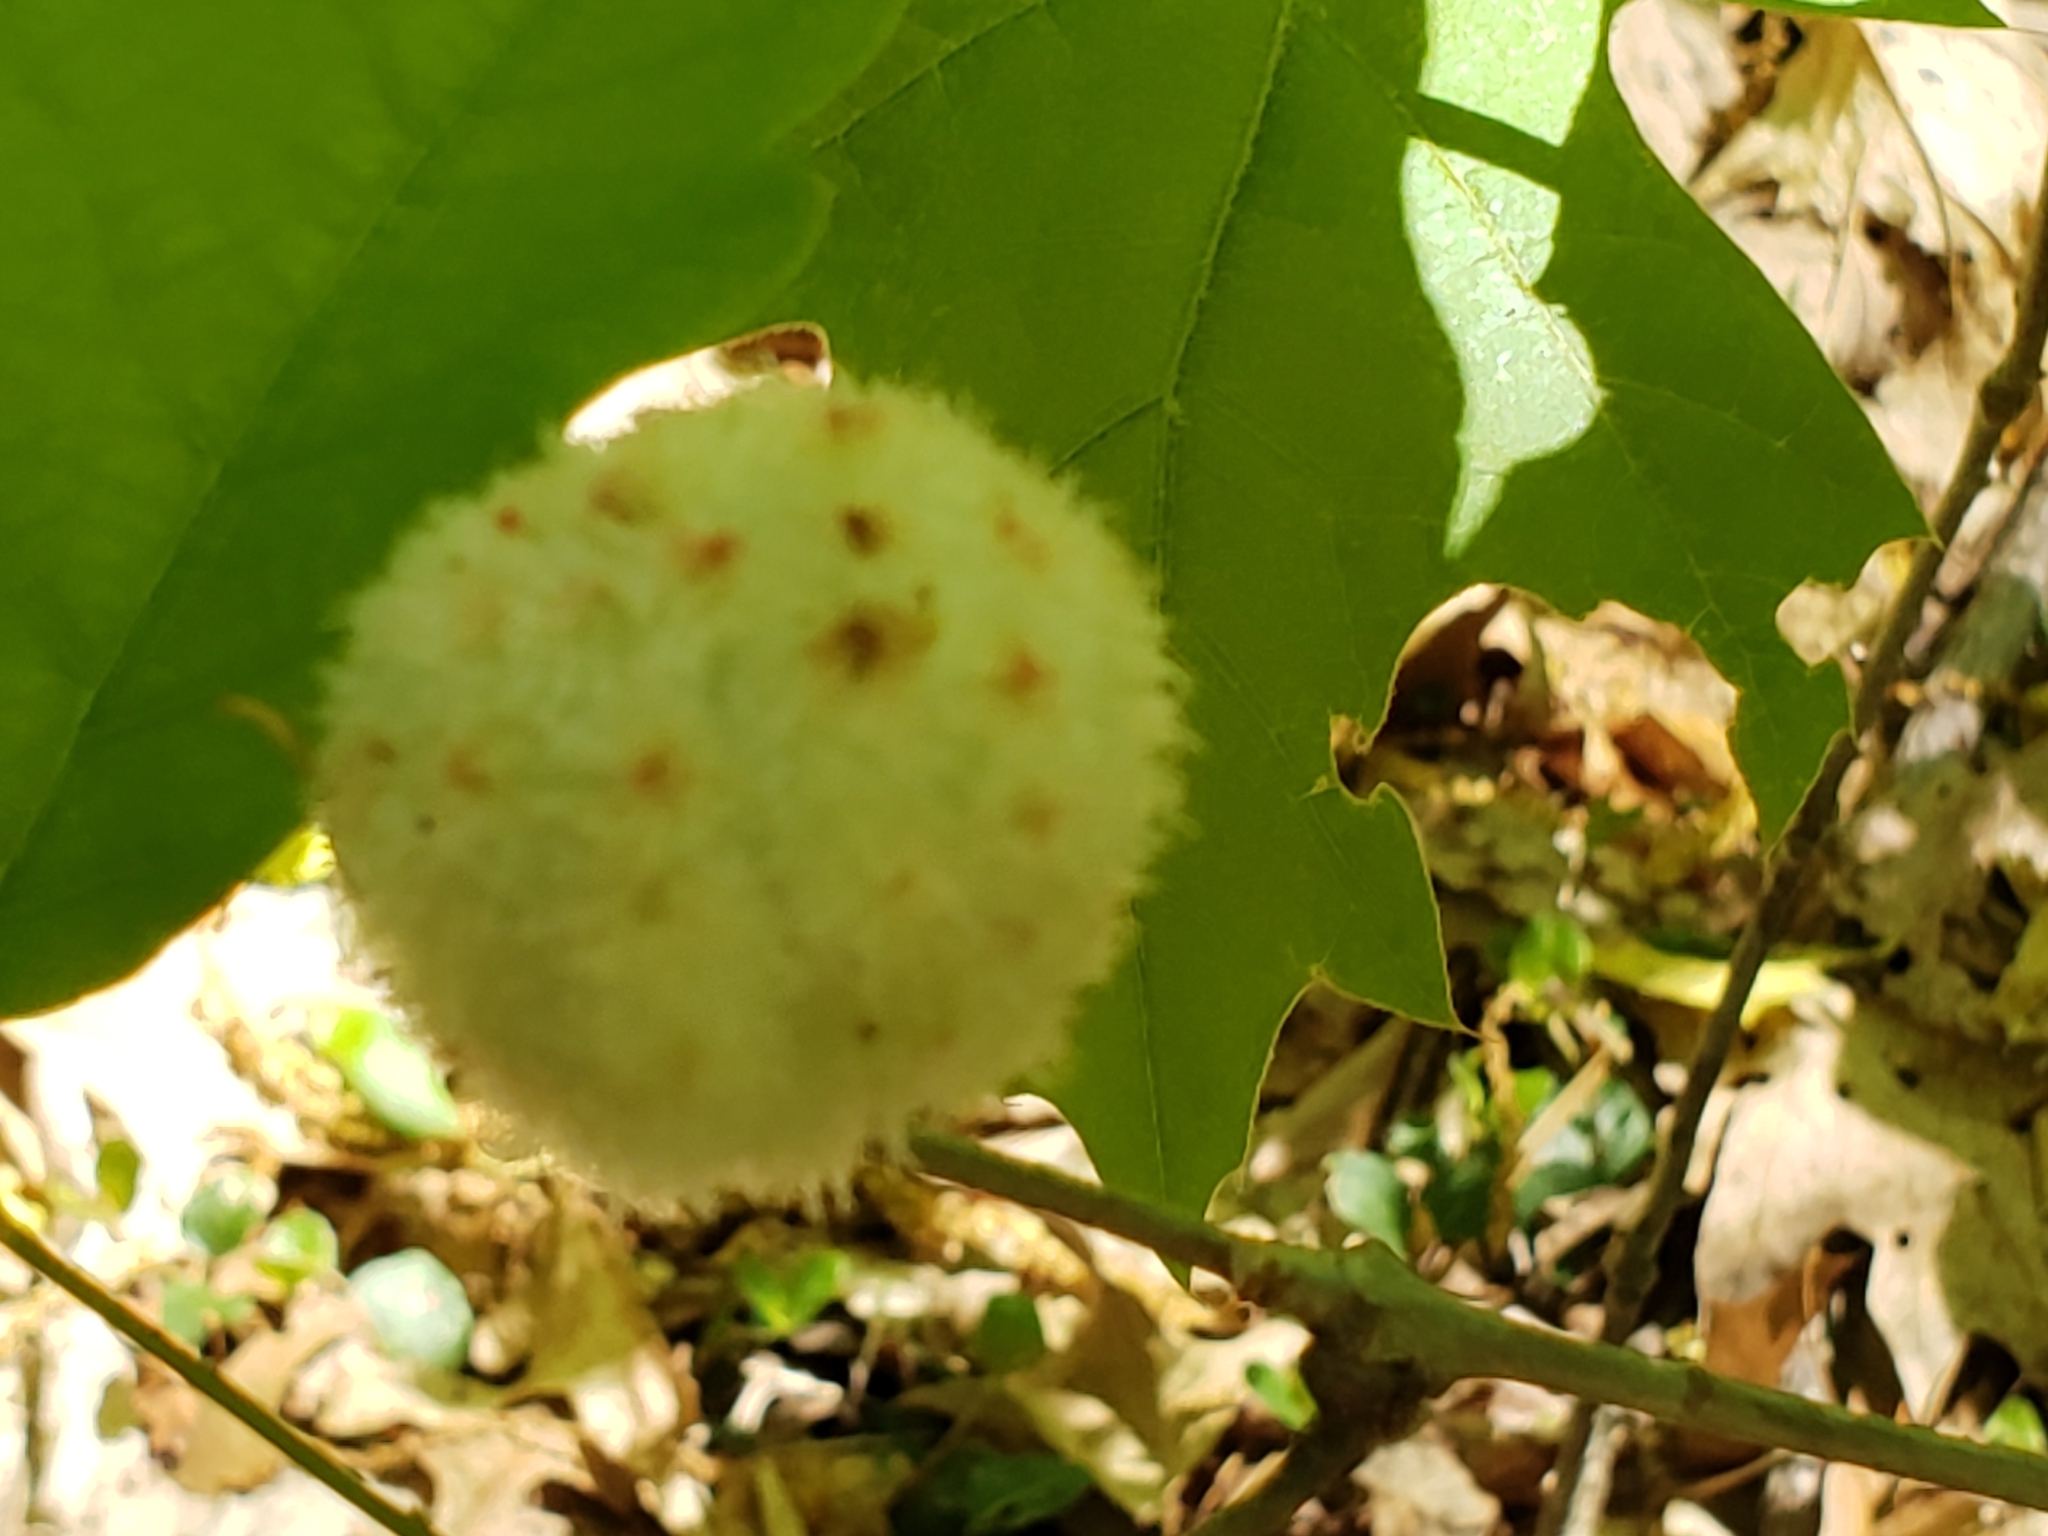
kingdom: Animalia
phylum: Arthropoda
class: Insecta
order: Hymenoptera
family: Cynipidae
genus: Callirhytis
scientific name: Callirhytis
